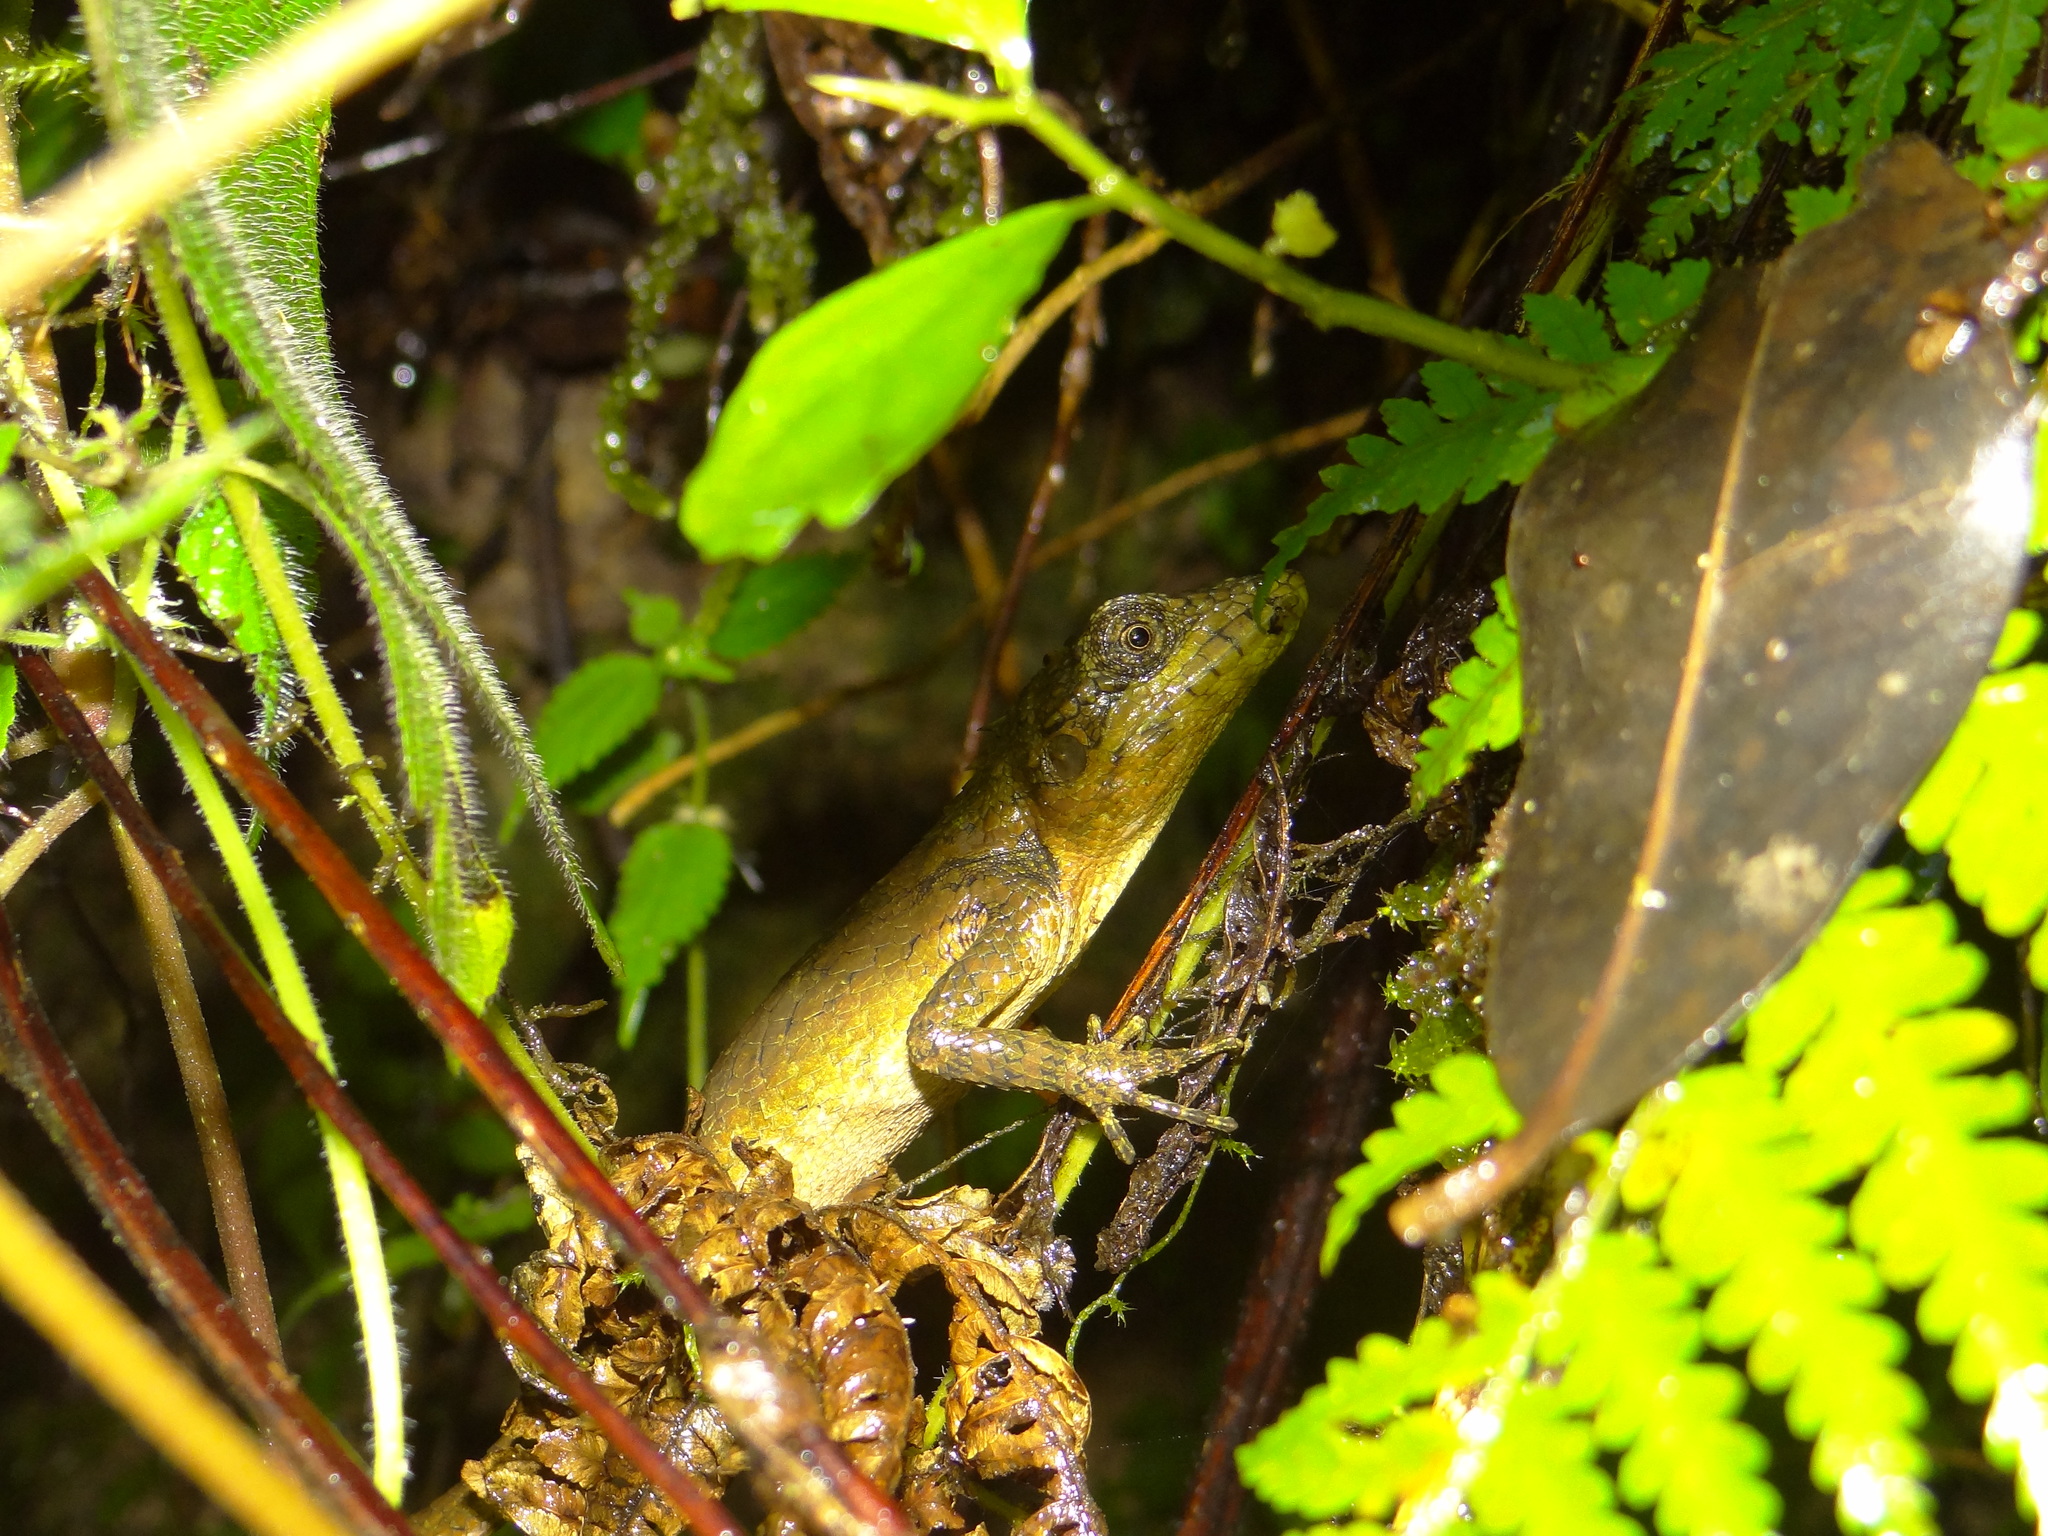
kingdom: Animalia
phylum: Chordata
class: Squamata
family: Agamidae
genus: Salea
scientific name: Salea anamallayana
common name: Anaimalai spiny lizard
